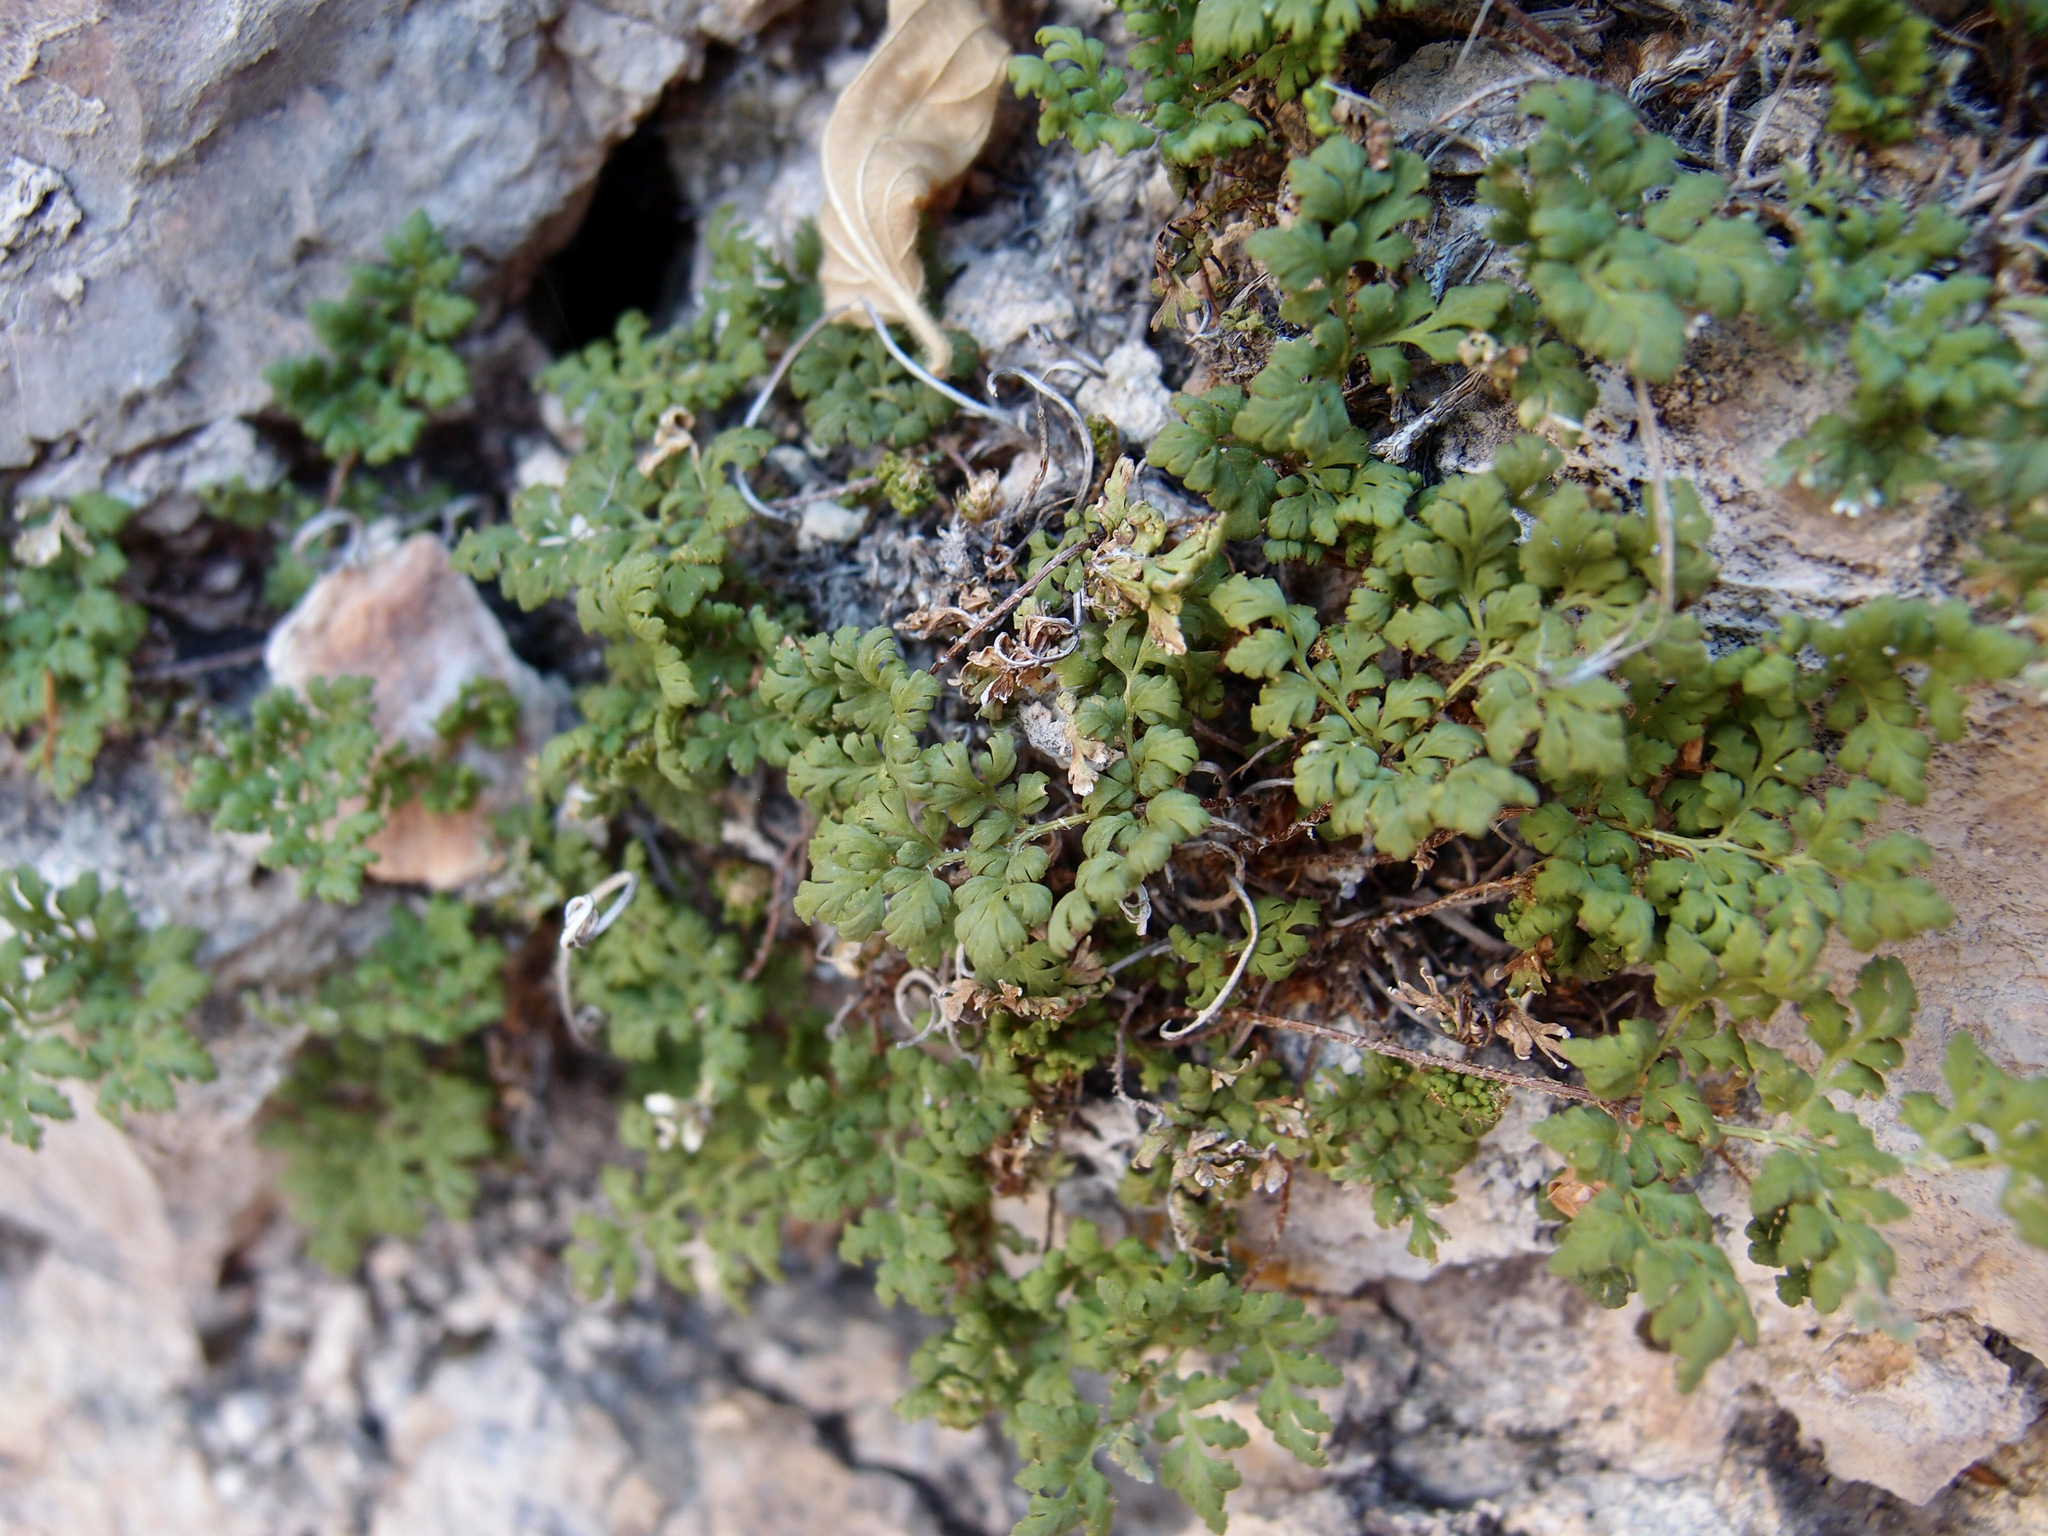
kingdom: Plantae
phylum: Tracheophyta
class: Polypodiopsida
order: Polypodiales
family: Pteridaceae
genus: Myriopteris
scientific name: Myriopteris pringlei
